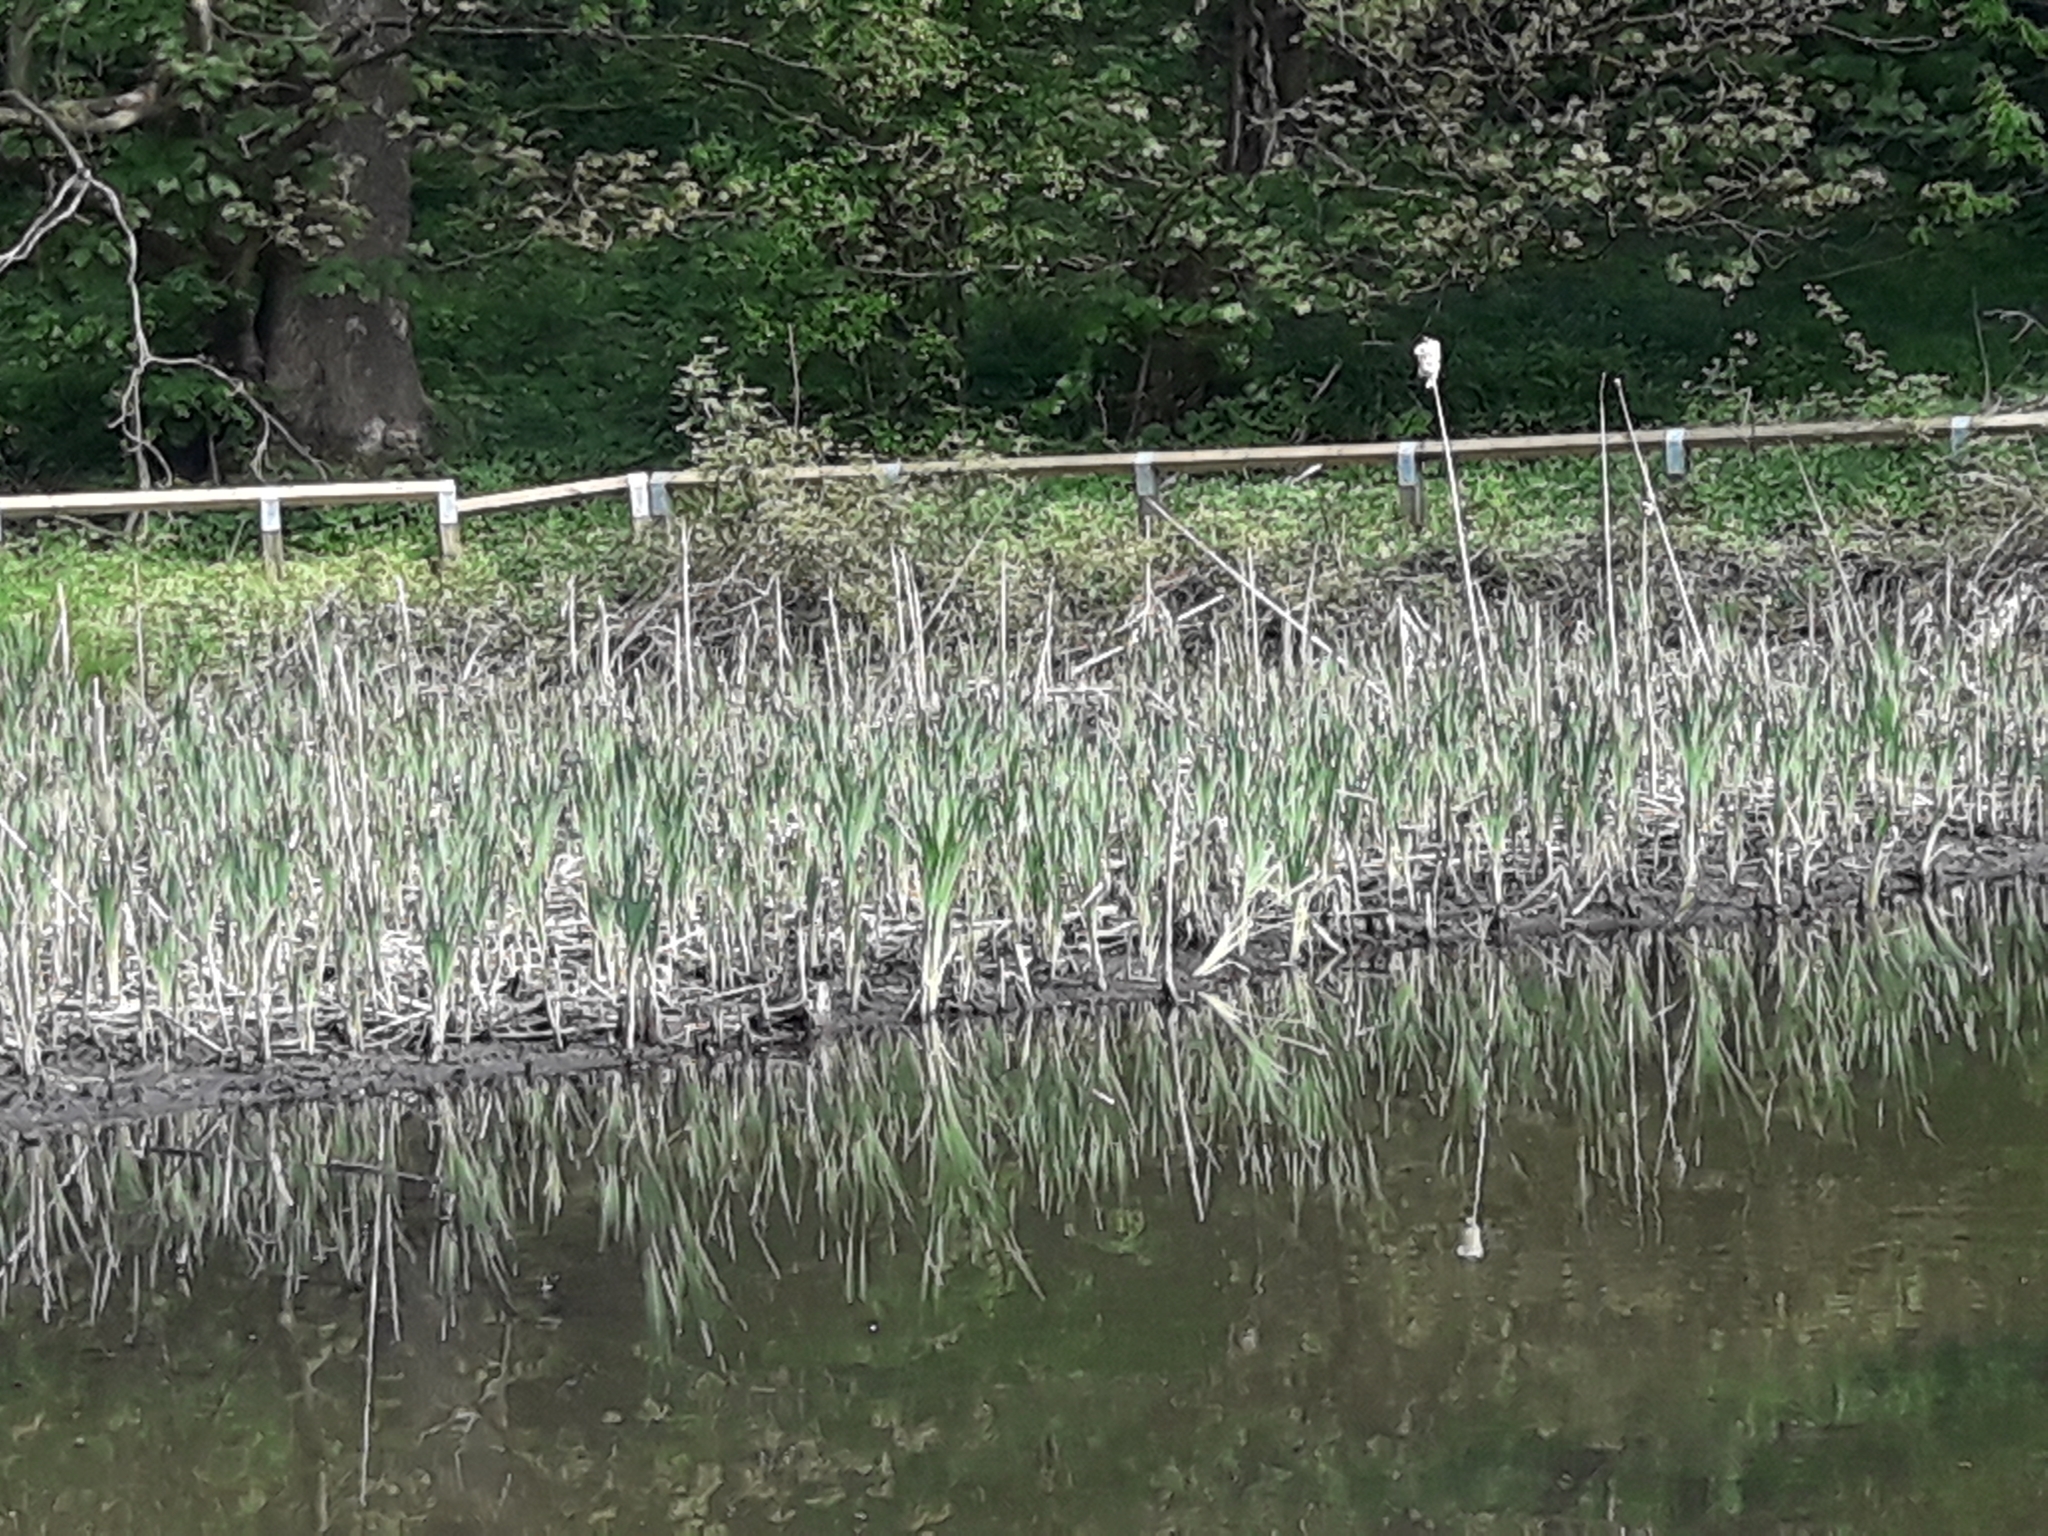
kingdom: Plantae
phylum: Tracheophyta
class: Liliopsida
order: Poales
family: Typhaceae
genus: Typha
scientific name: Typha latifolia
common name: Broadleaf cattail
